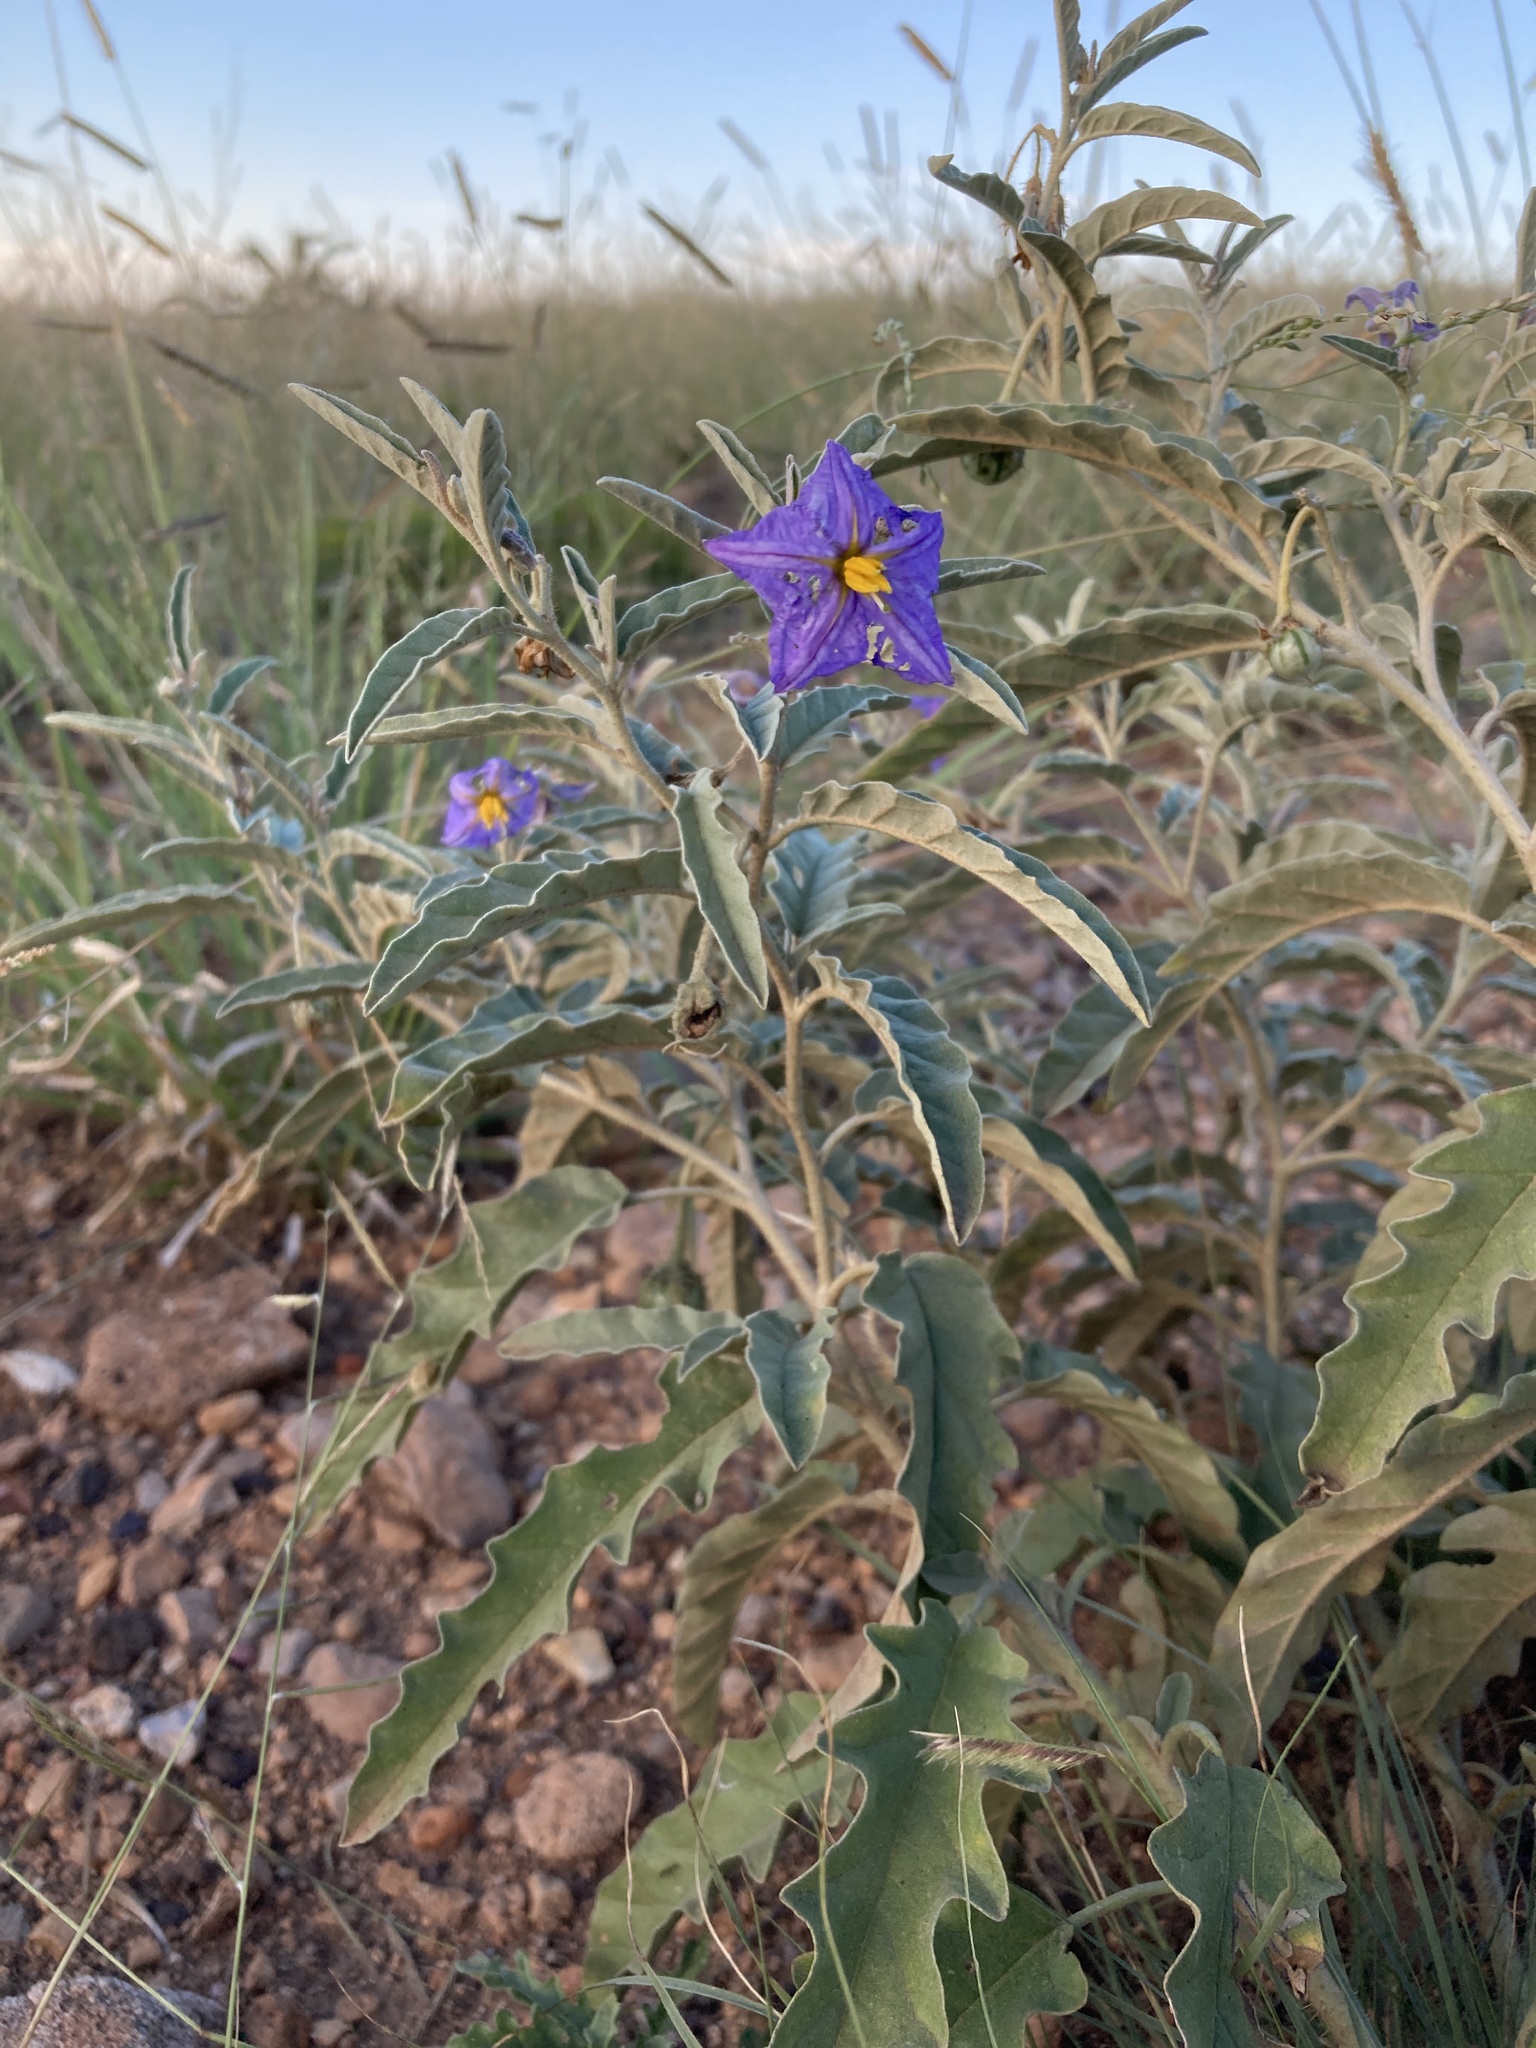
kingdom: Plantae
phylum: Tracheophyta
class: Magnoliopsida
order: Solanales
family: Solanaceae
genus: Solanum
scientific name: Solanum elaeagnifolium
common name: Silverleaf nightshade
